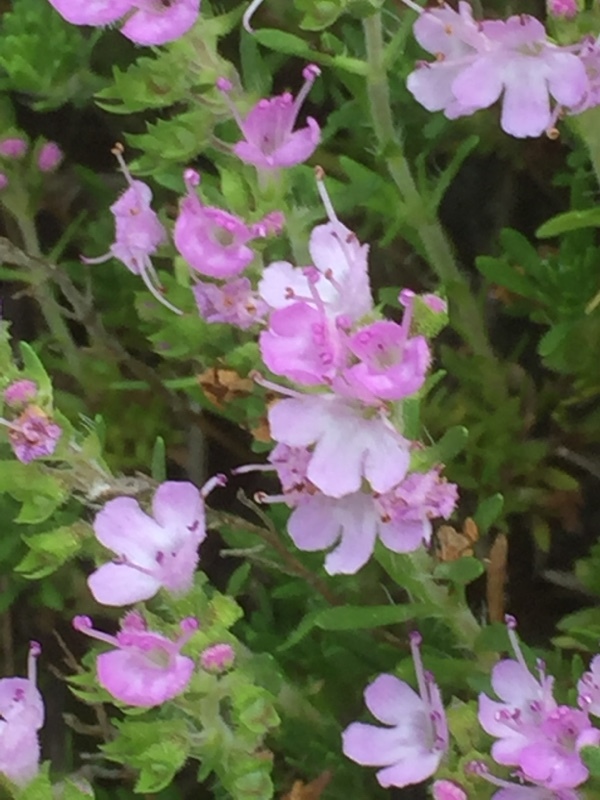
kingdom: Plantae
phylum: Tracheophyta
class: Magnoliopsida
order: Lamiales
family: Lamiaceae
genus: Thymus
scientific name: Thymus caespititius
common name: Azores thyme
